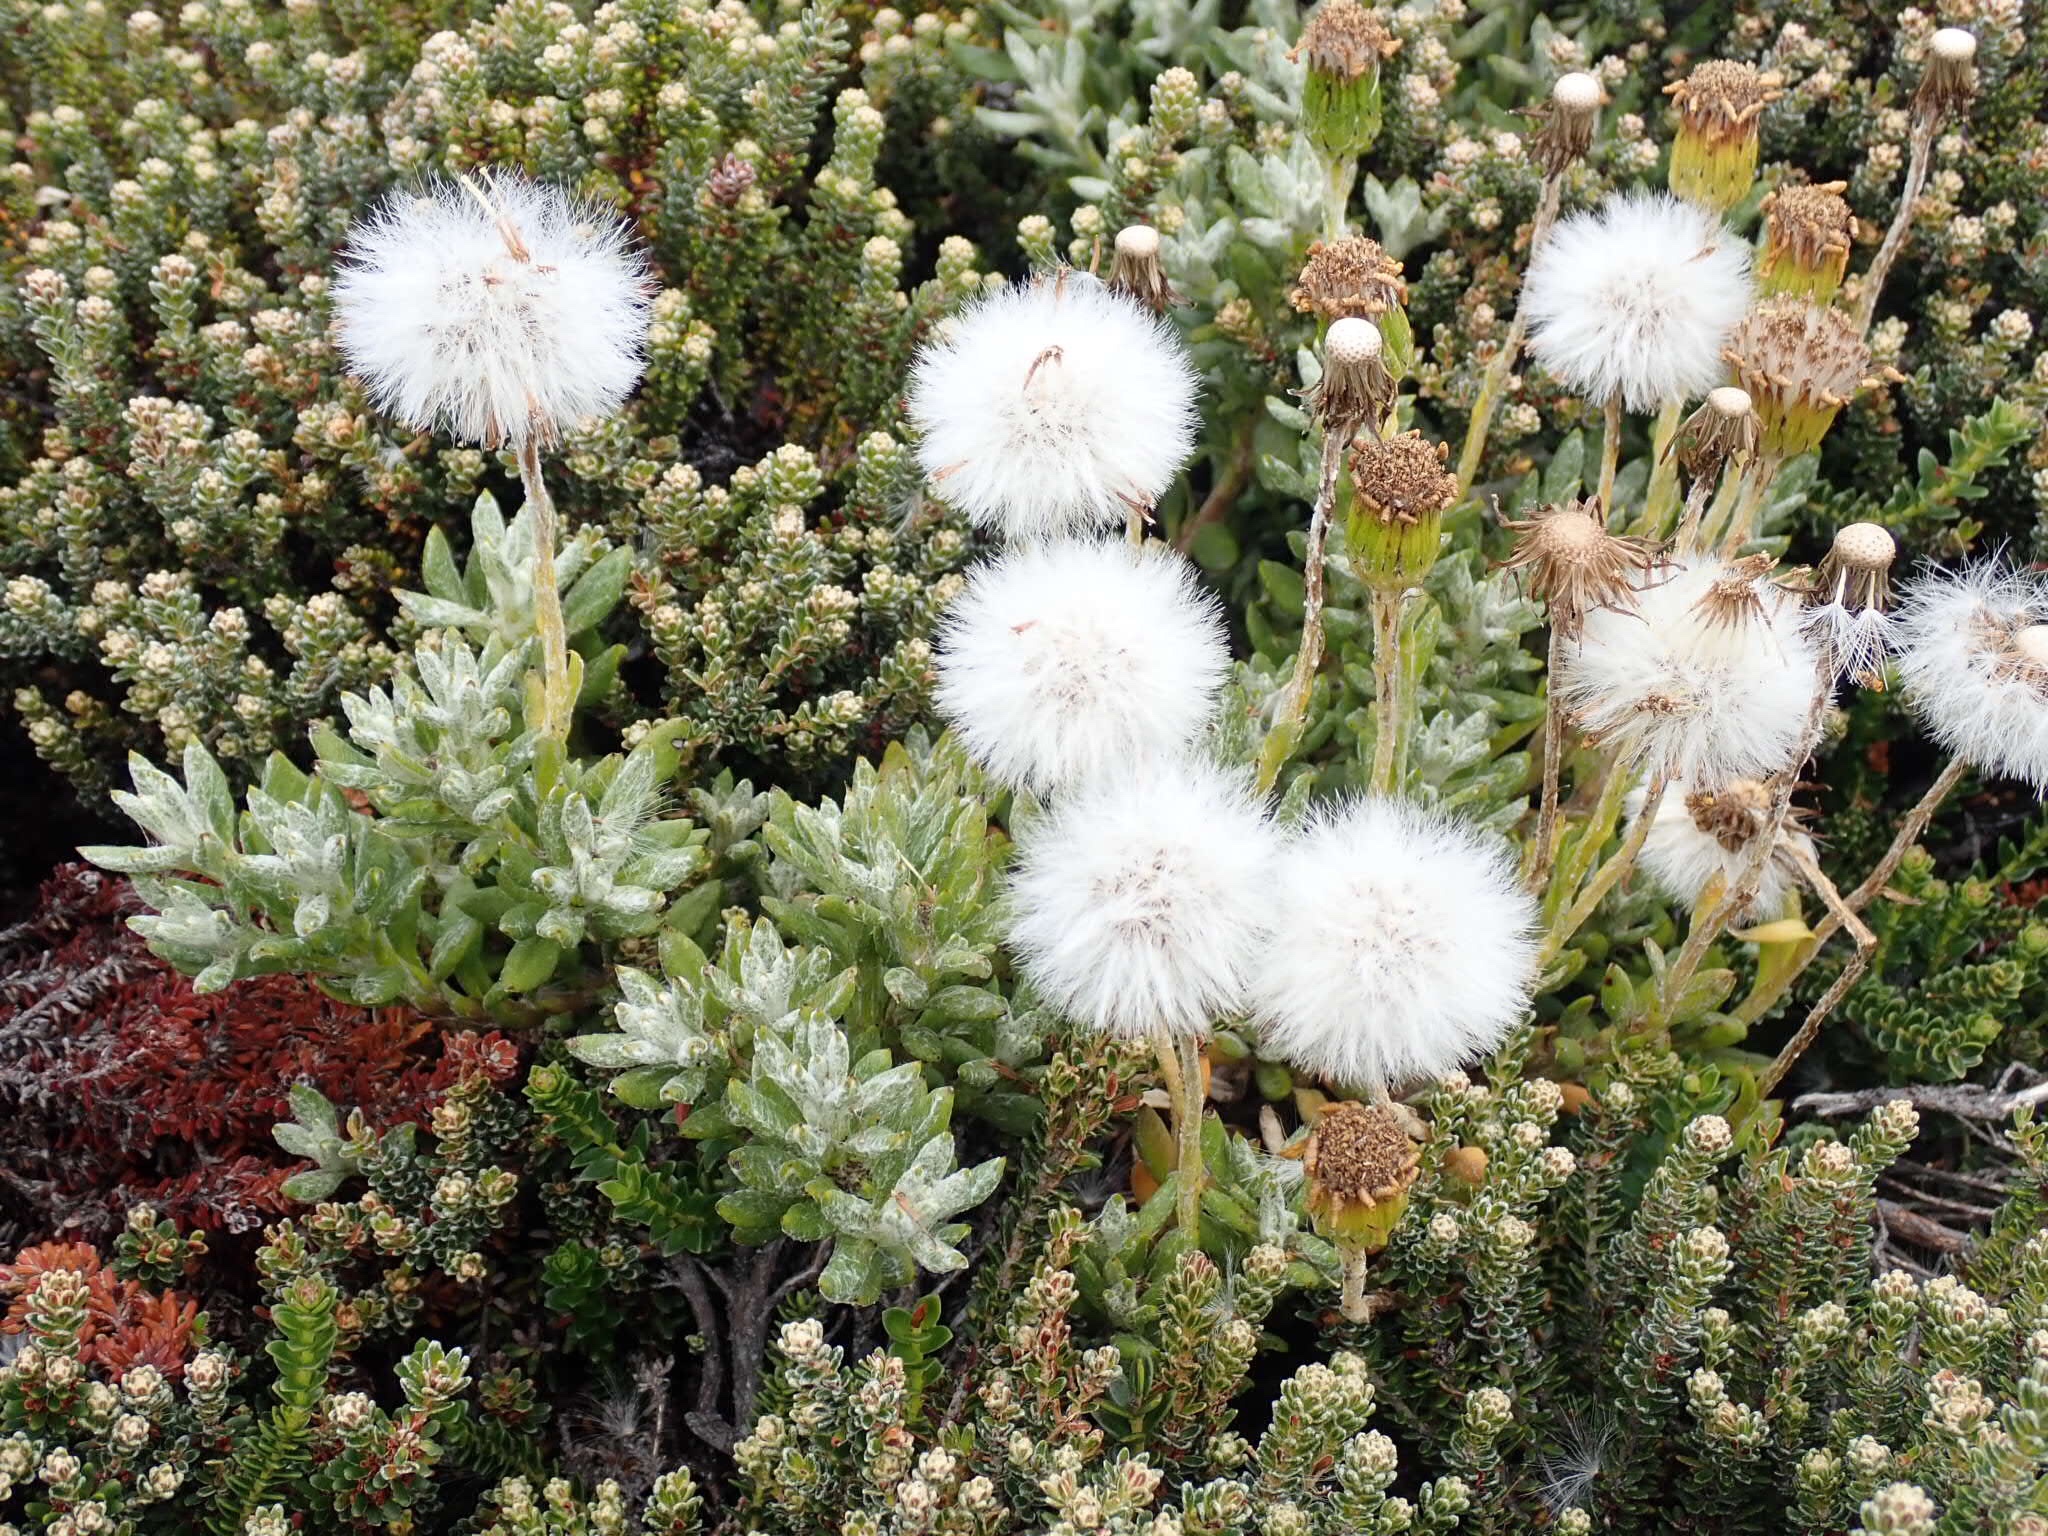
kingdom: Plantae
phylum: Tracheophyta
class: Magnoliopsida
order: Asterales
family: Asteraceae
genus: Senecio
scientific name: Senecio falklandicus
